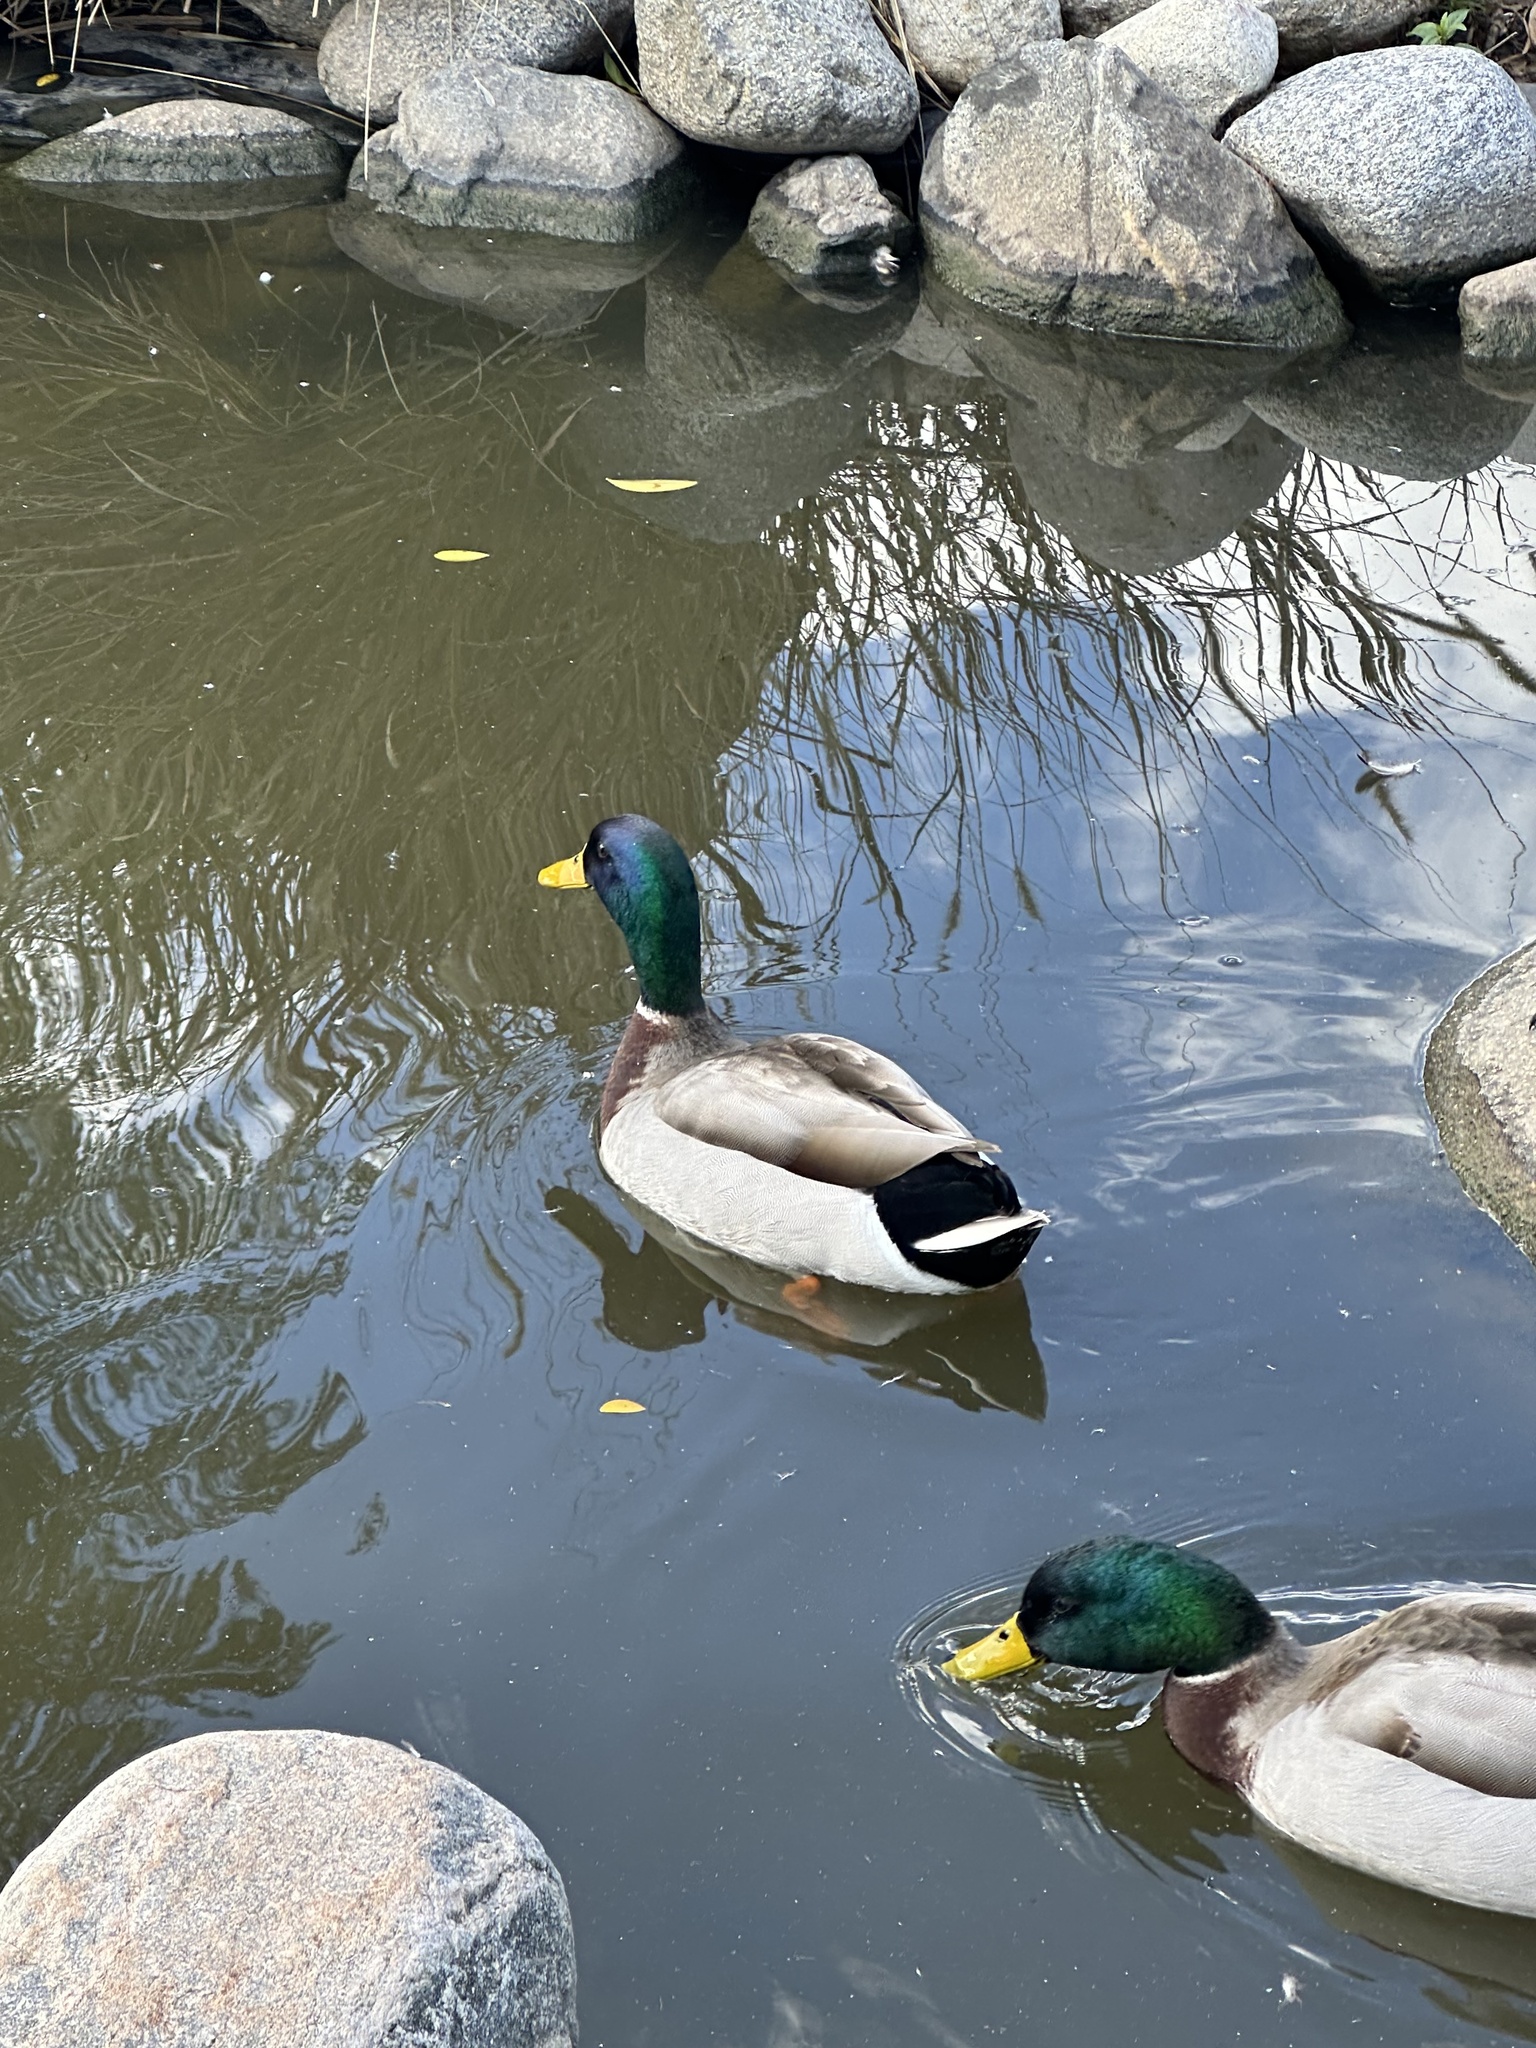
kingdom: Animalia
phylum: Chordata
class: Aves
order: Anseriformes
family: Anatidae
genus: Anas
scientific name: Anas platyrhynchos
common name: Mallard
